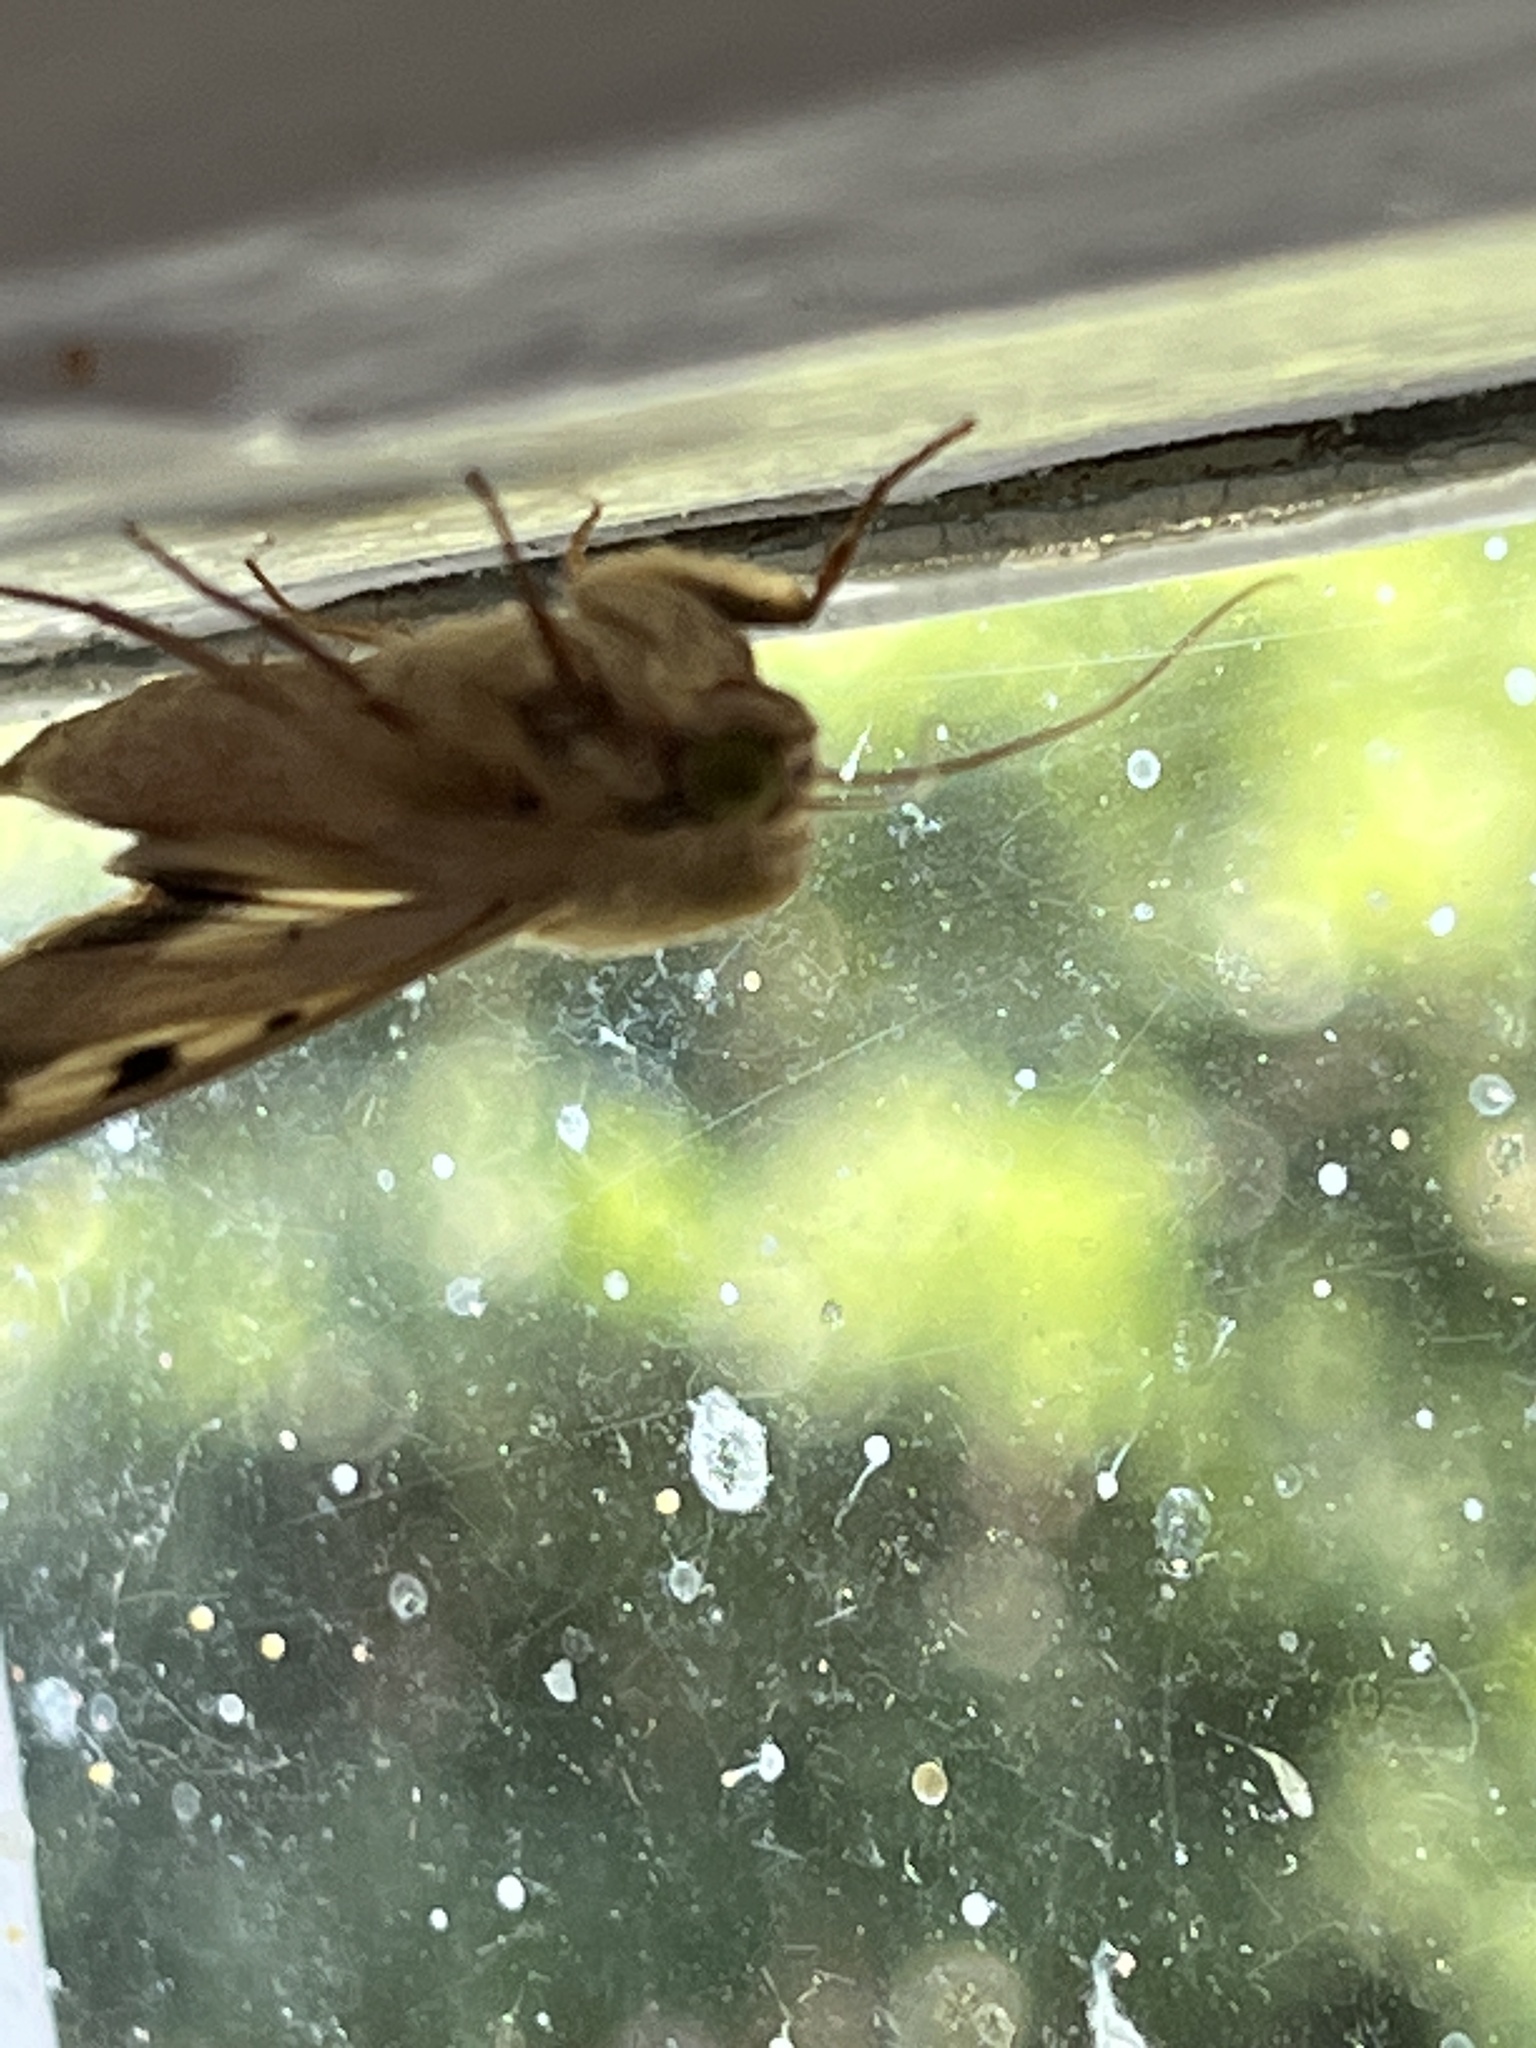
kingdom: Animalia
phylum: Arthropoda
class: Insecta
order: Lepidoptera
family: Noctuidae
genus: Helicoverpa
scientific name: Helicoverpa armigera
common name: Cotton bollworm
